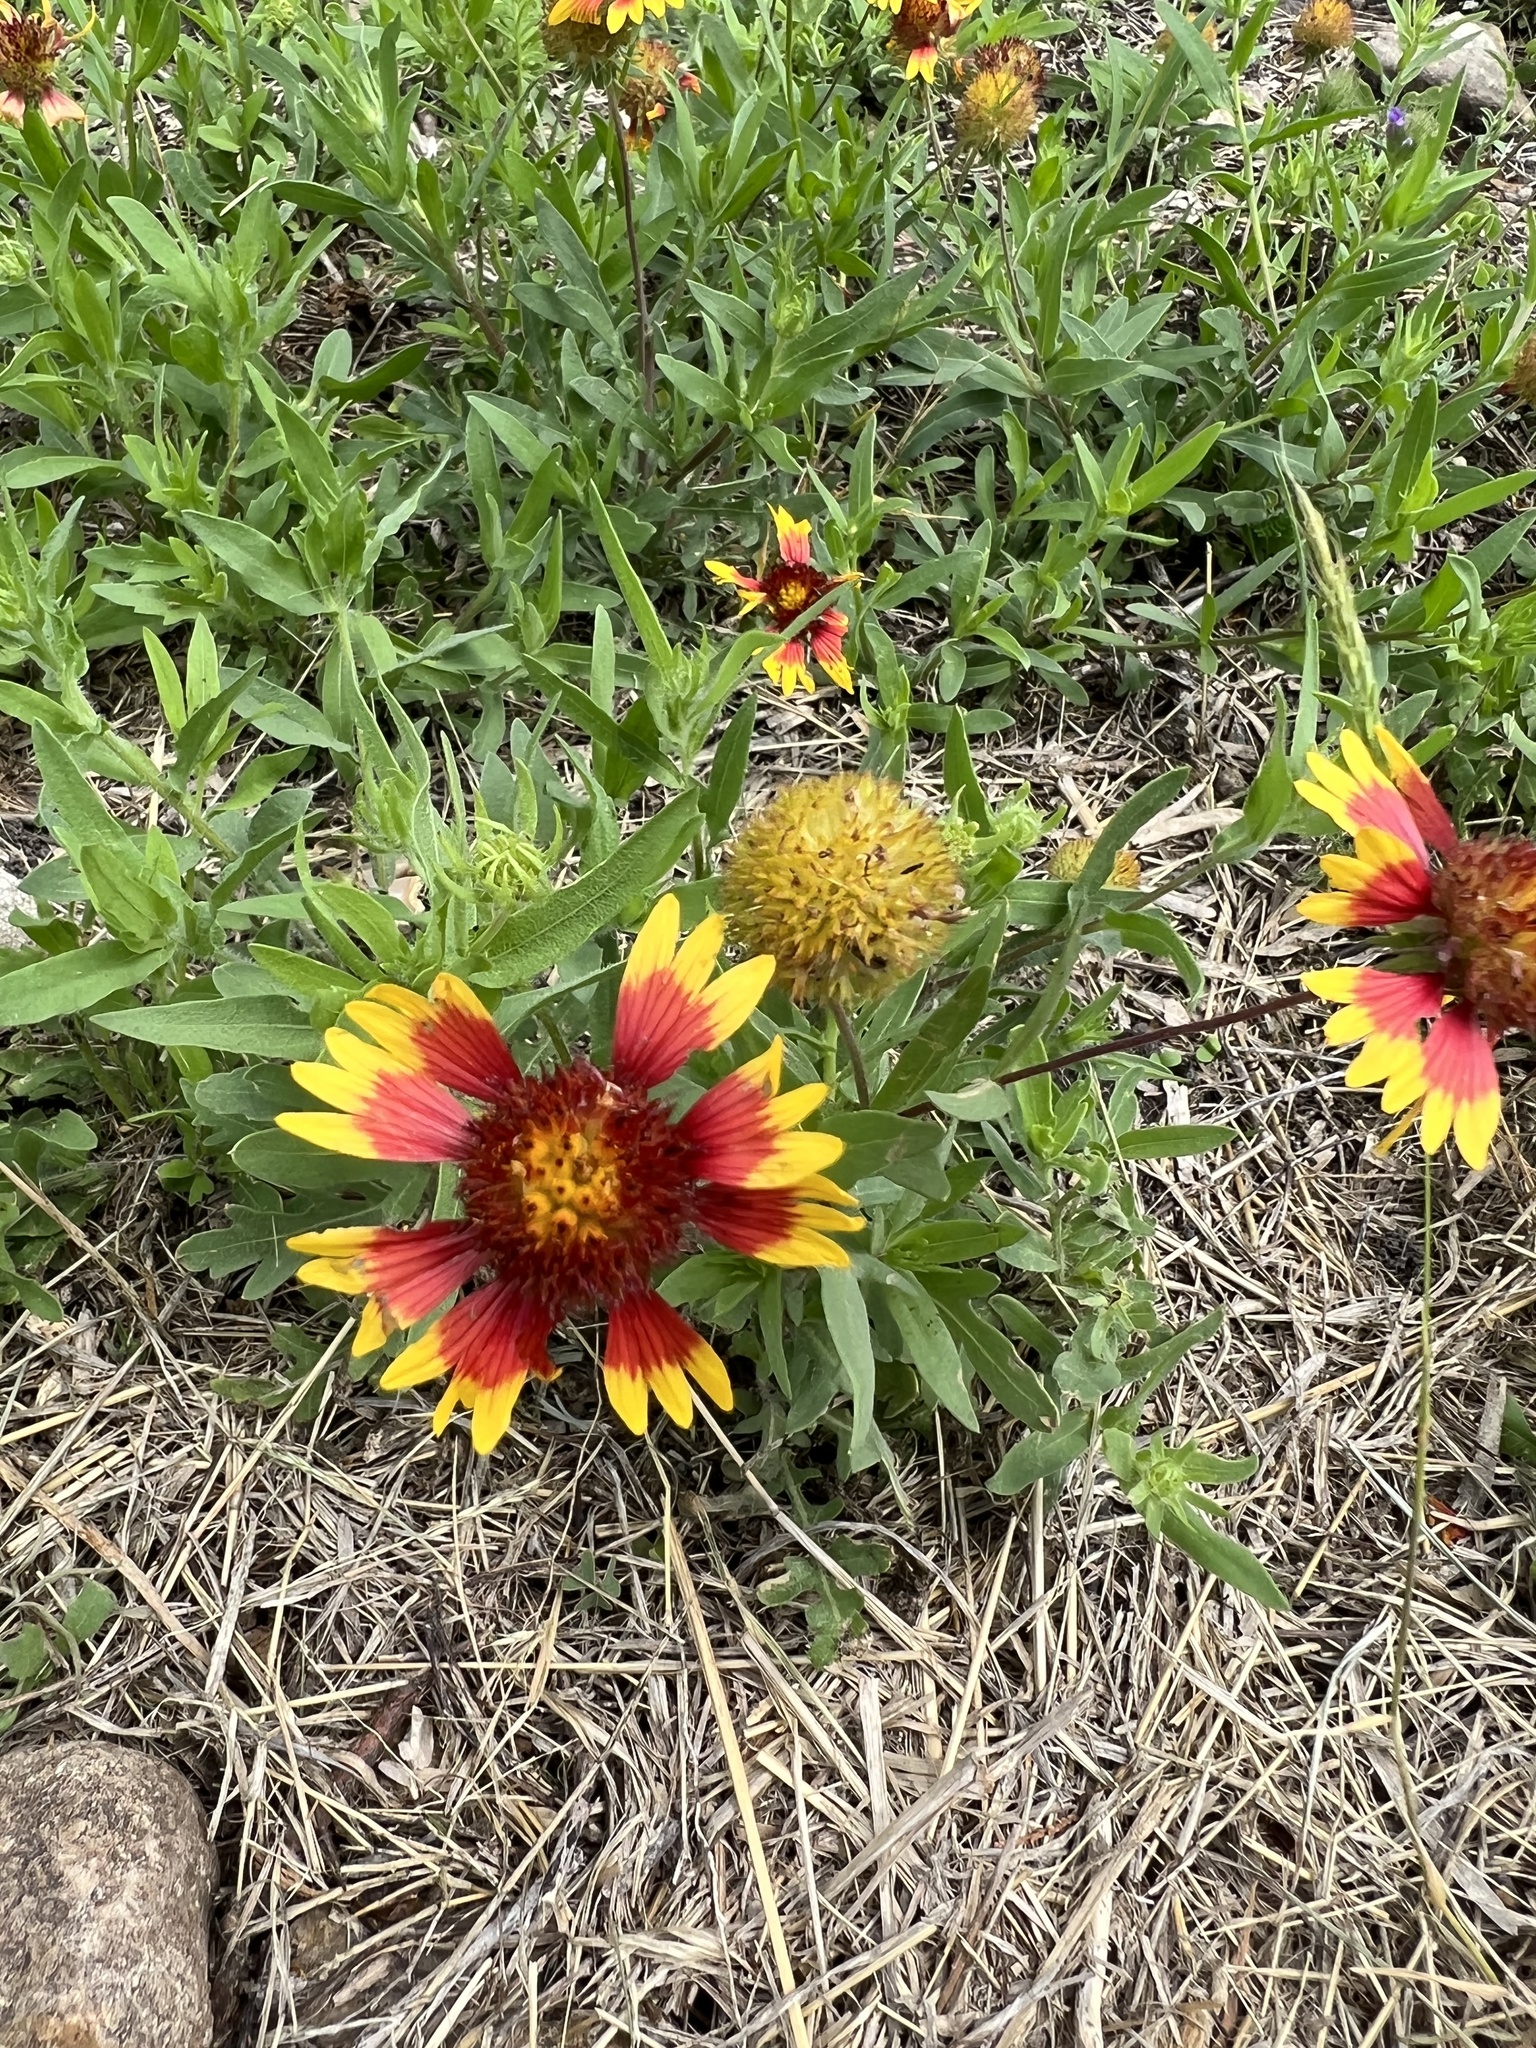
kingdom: Plantae
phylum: Tracheophyta
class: Magnoliopsida
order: Asterales
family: Asteraceae
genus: Gaillardia
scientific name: Gaillardia pulchella
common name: Firewheel
